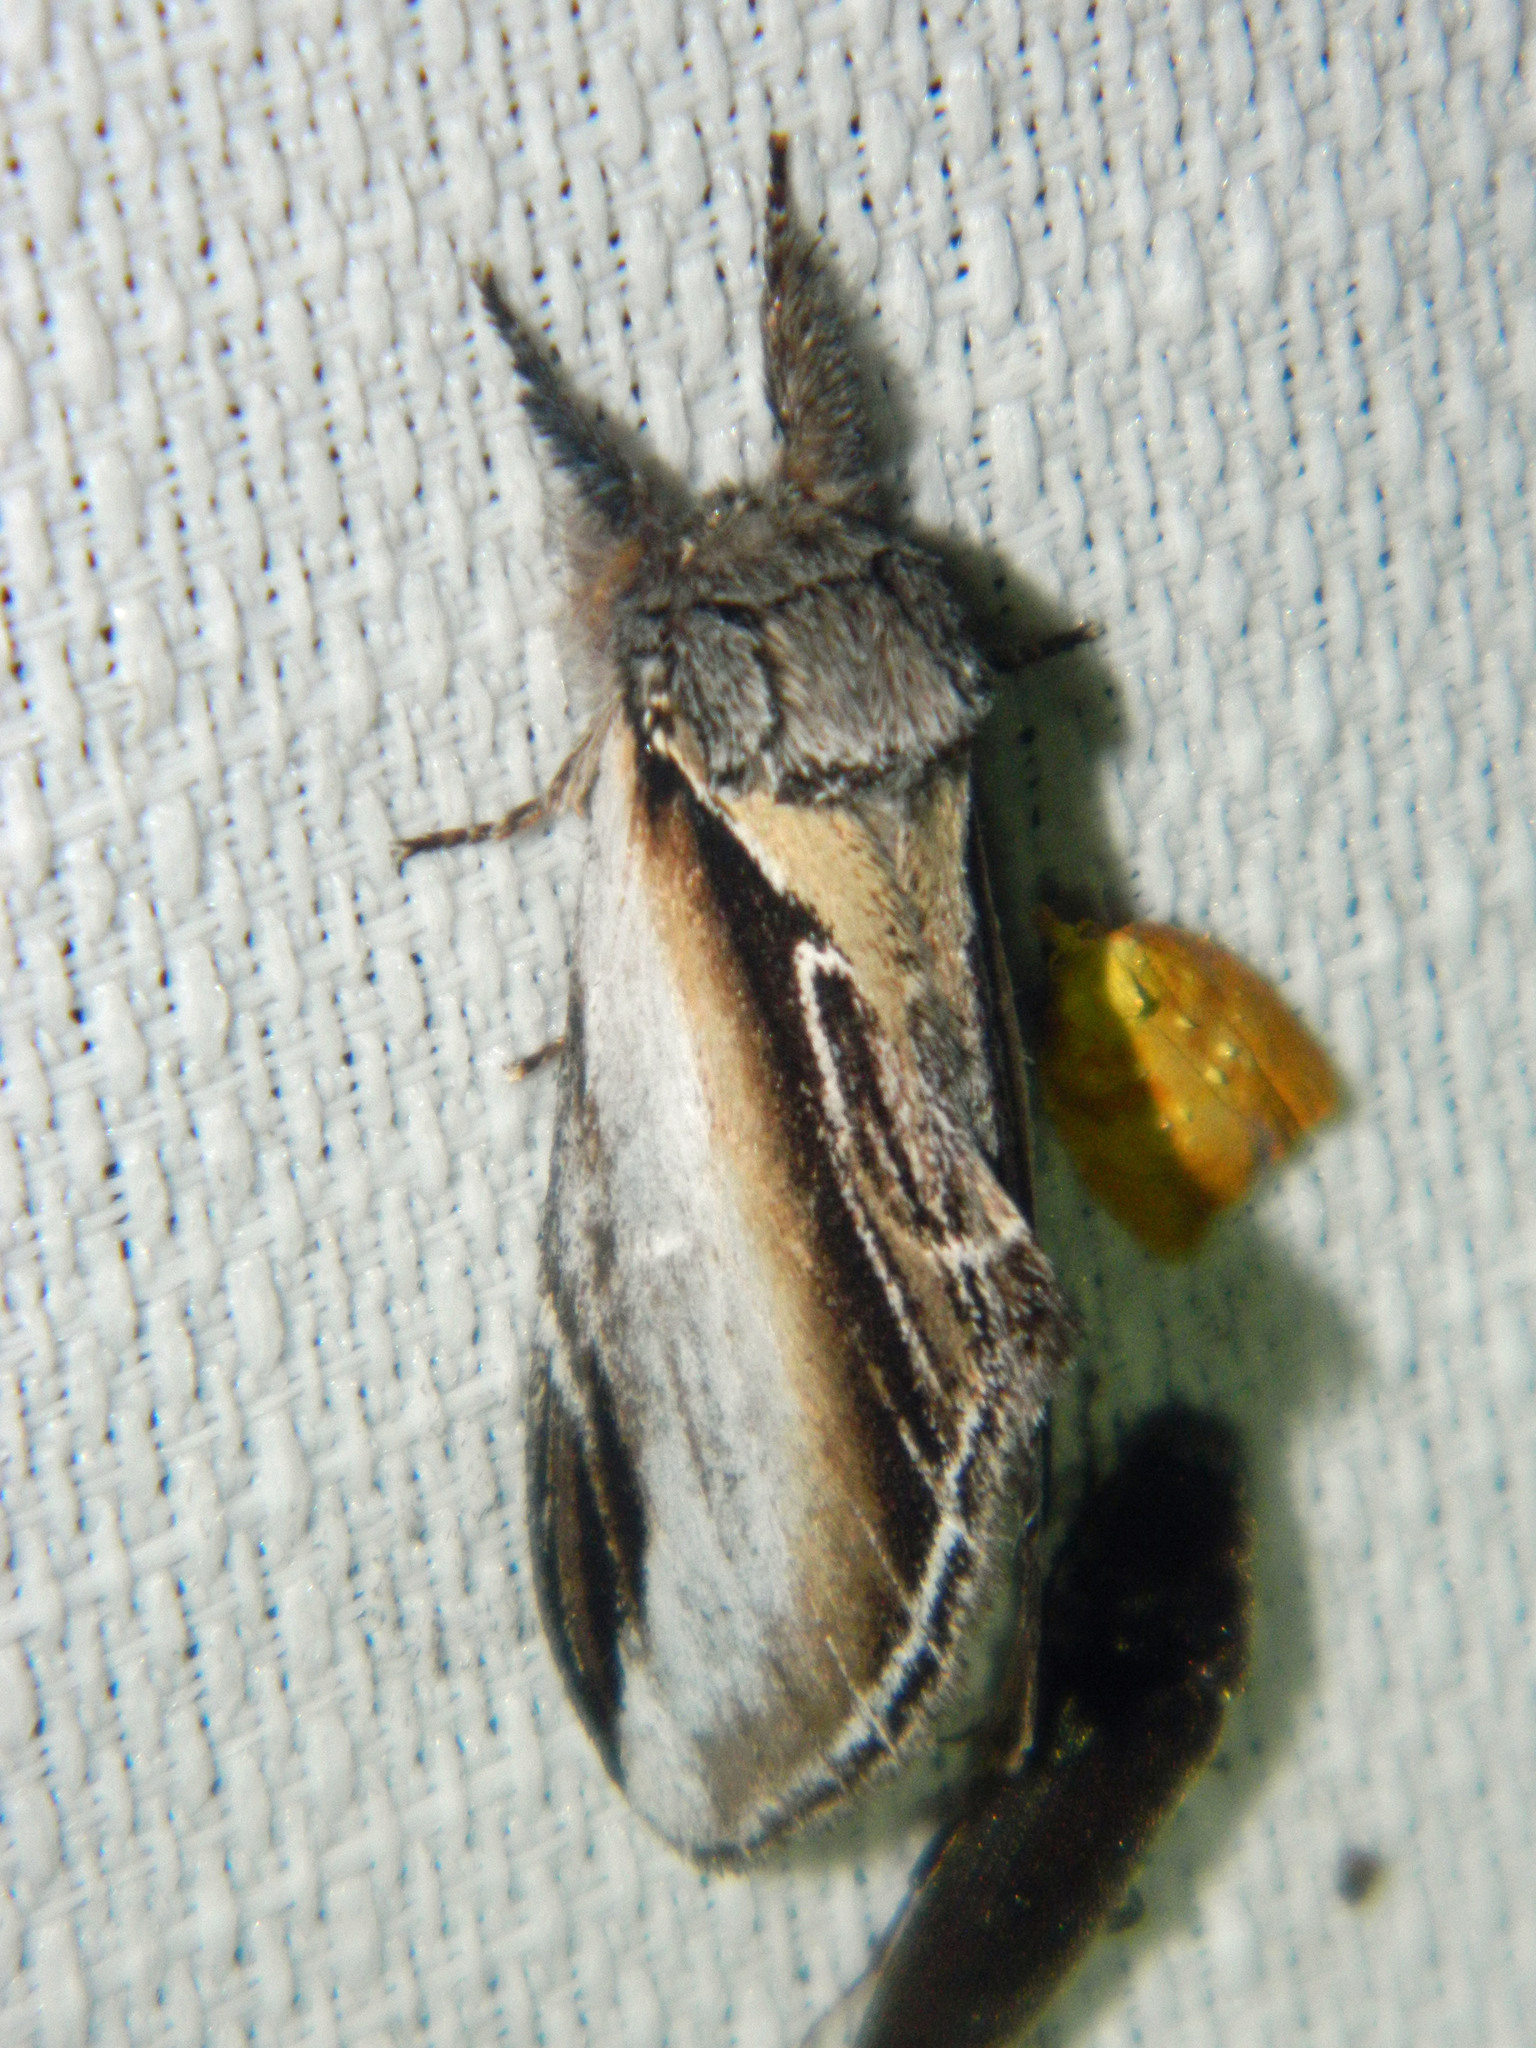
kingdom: Animalia
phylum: Arthropoda
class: Insecta
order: Lepidoptera
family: Notodontidae
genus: Pheosia
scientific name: Pheosia rimosa
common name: Black-rimmed prominent
